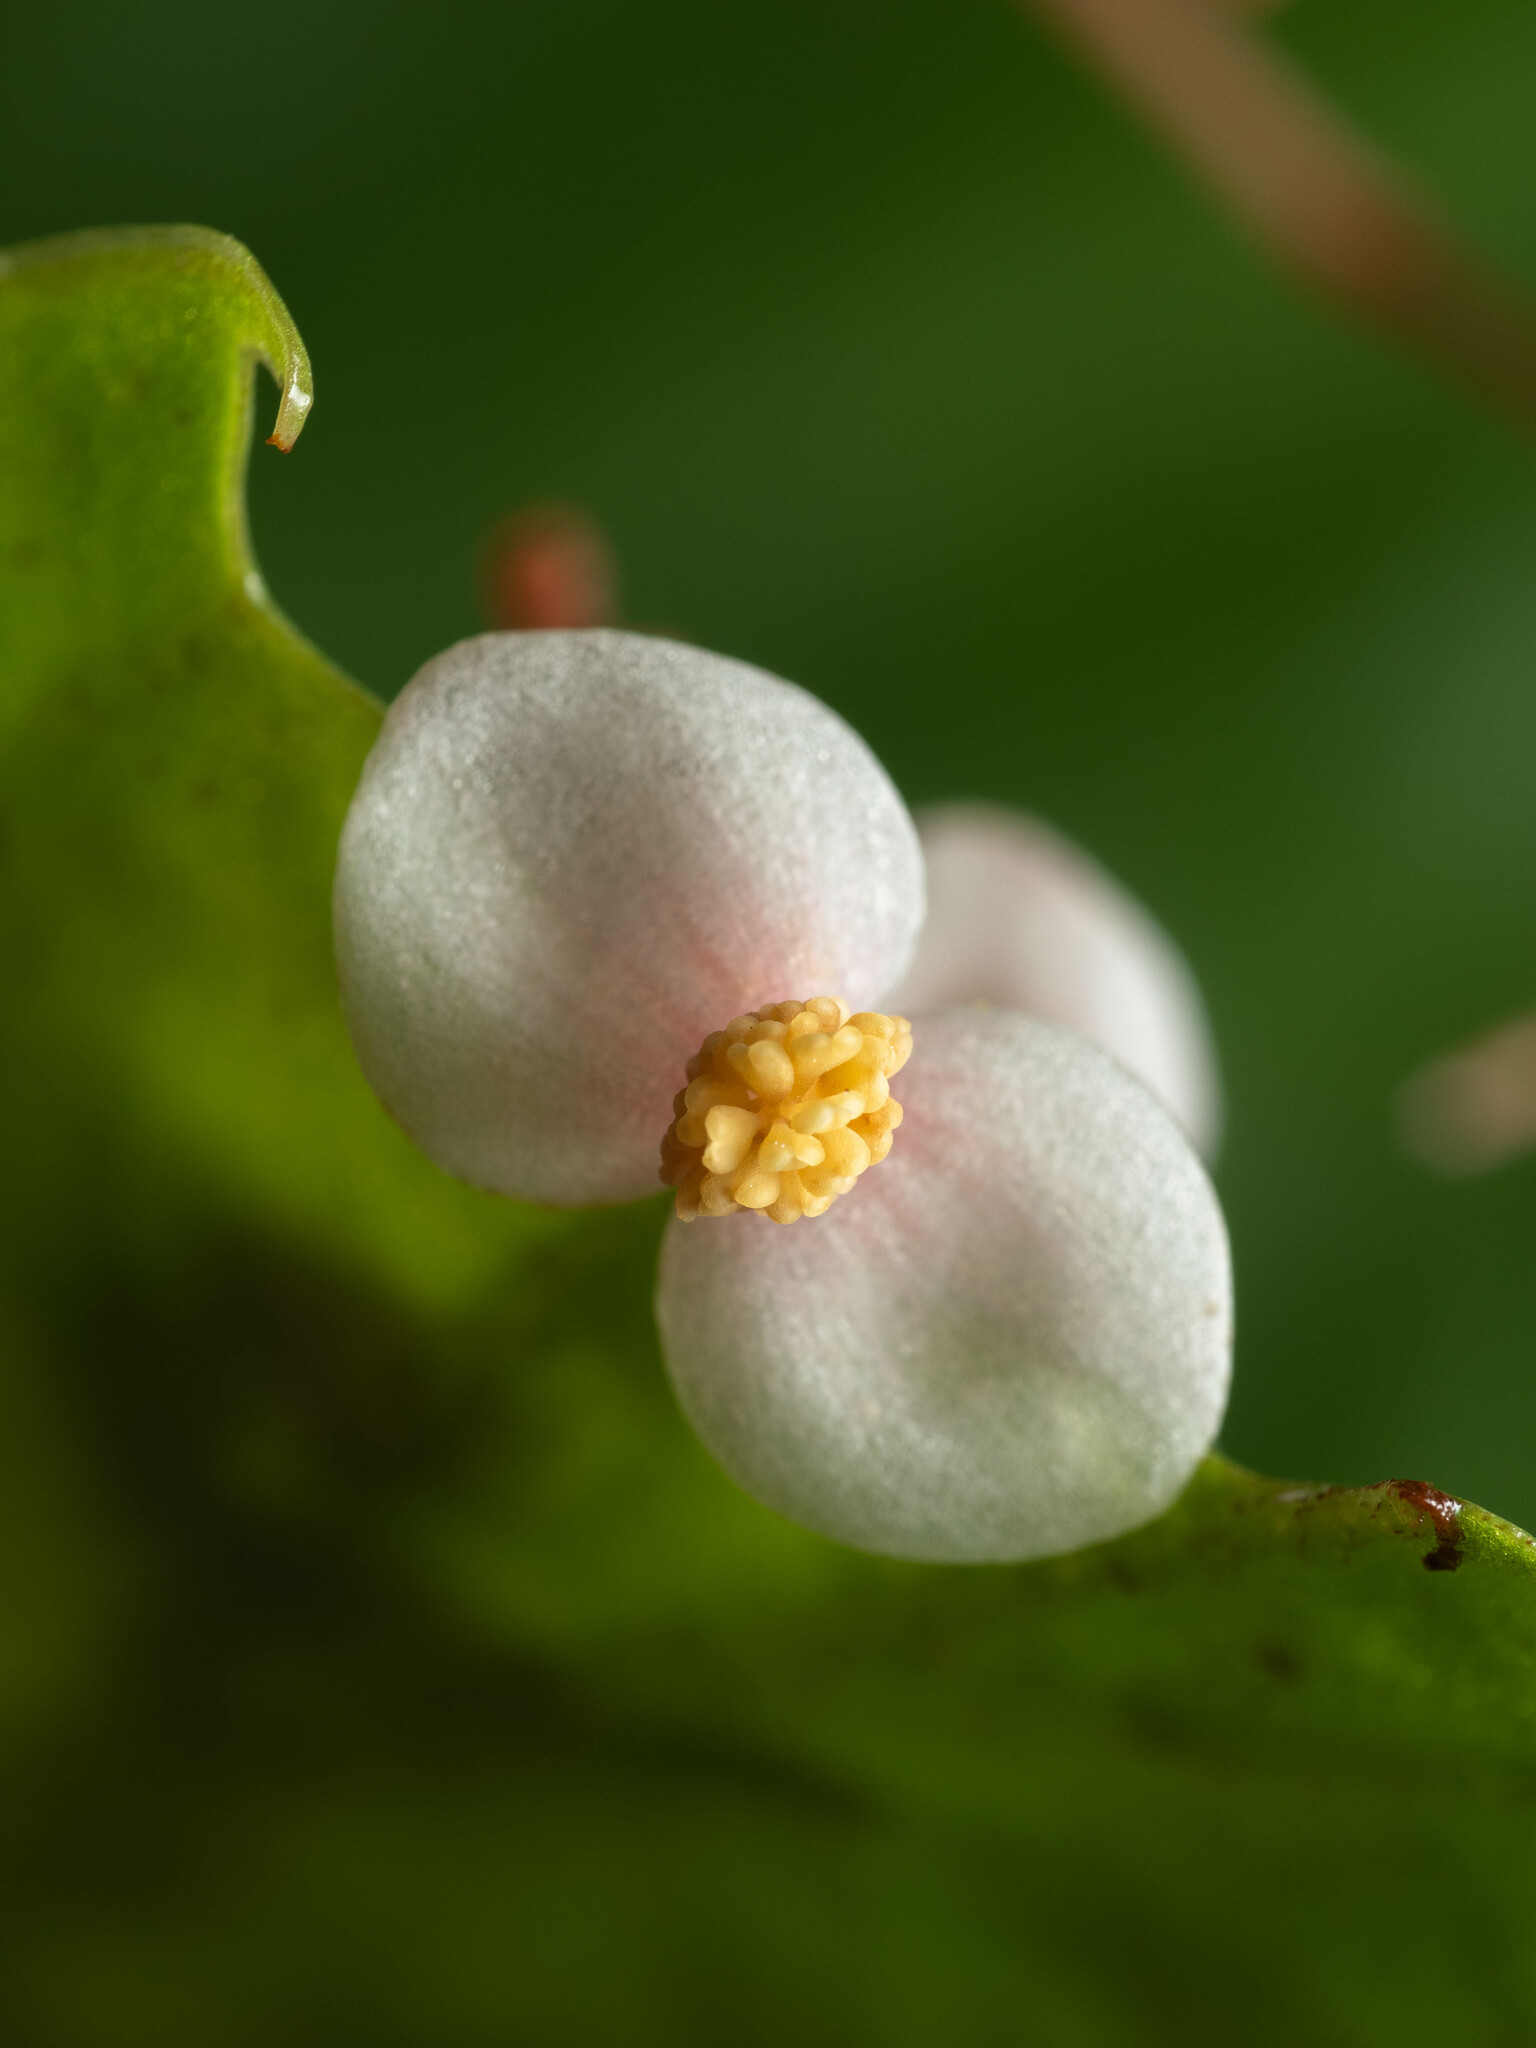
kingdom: Plantae
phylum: Tracheophyta
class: Magnoliopsida
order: Cucurbitales
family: Begoniaceae
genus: Begonia
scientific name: Begonia palawanensis
